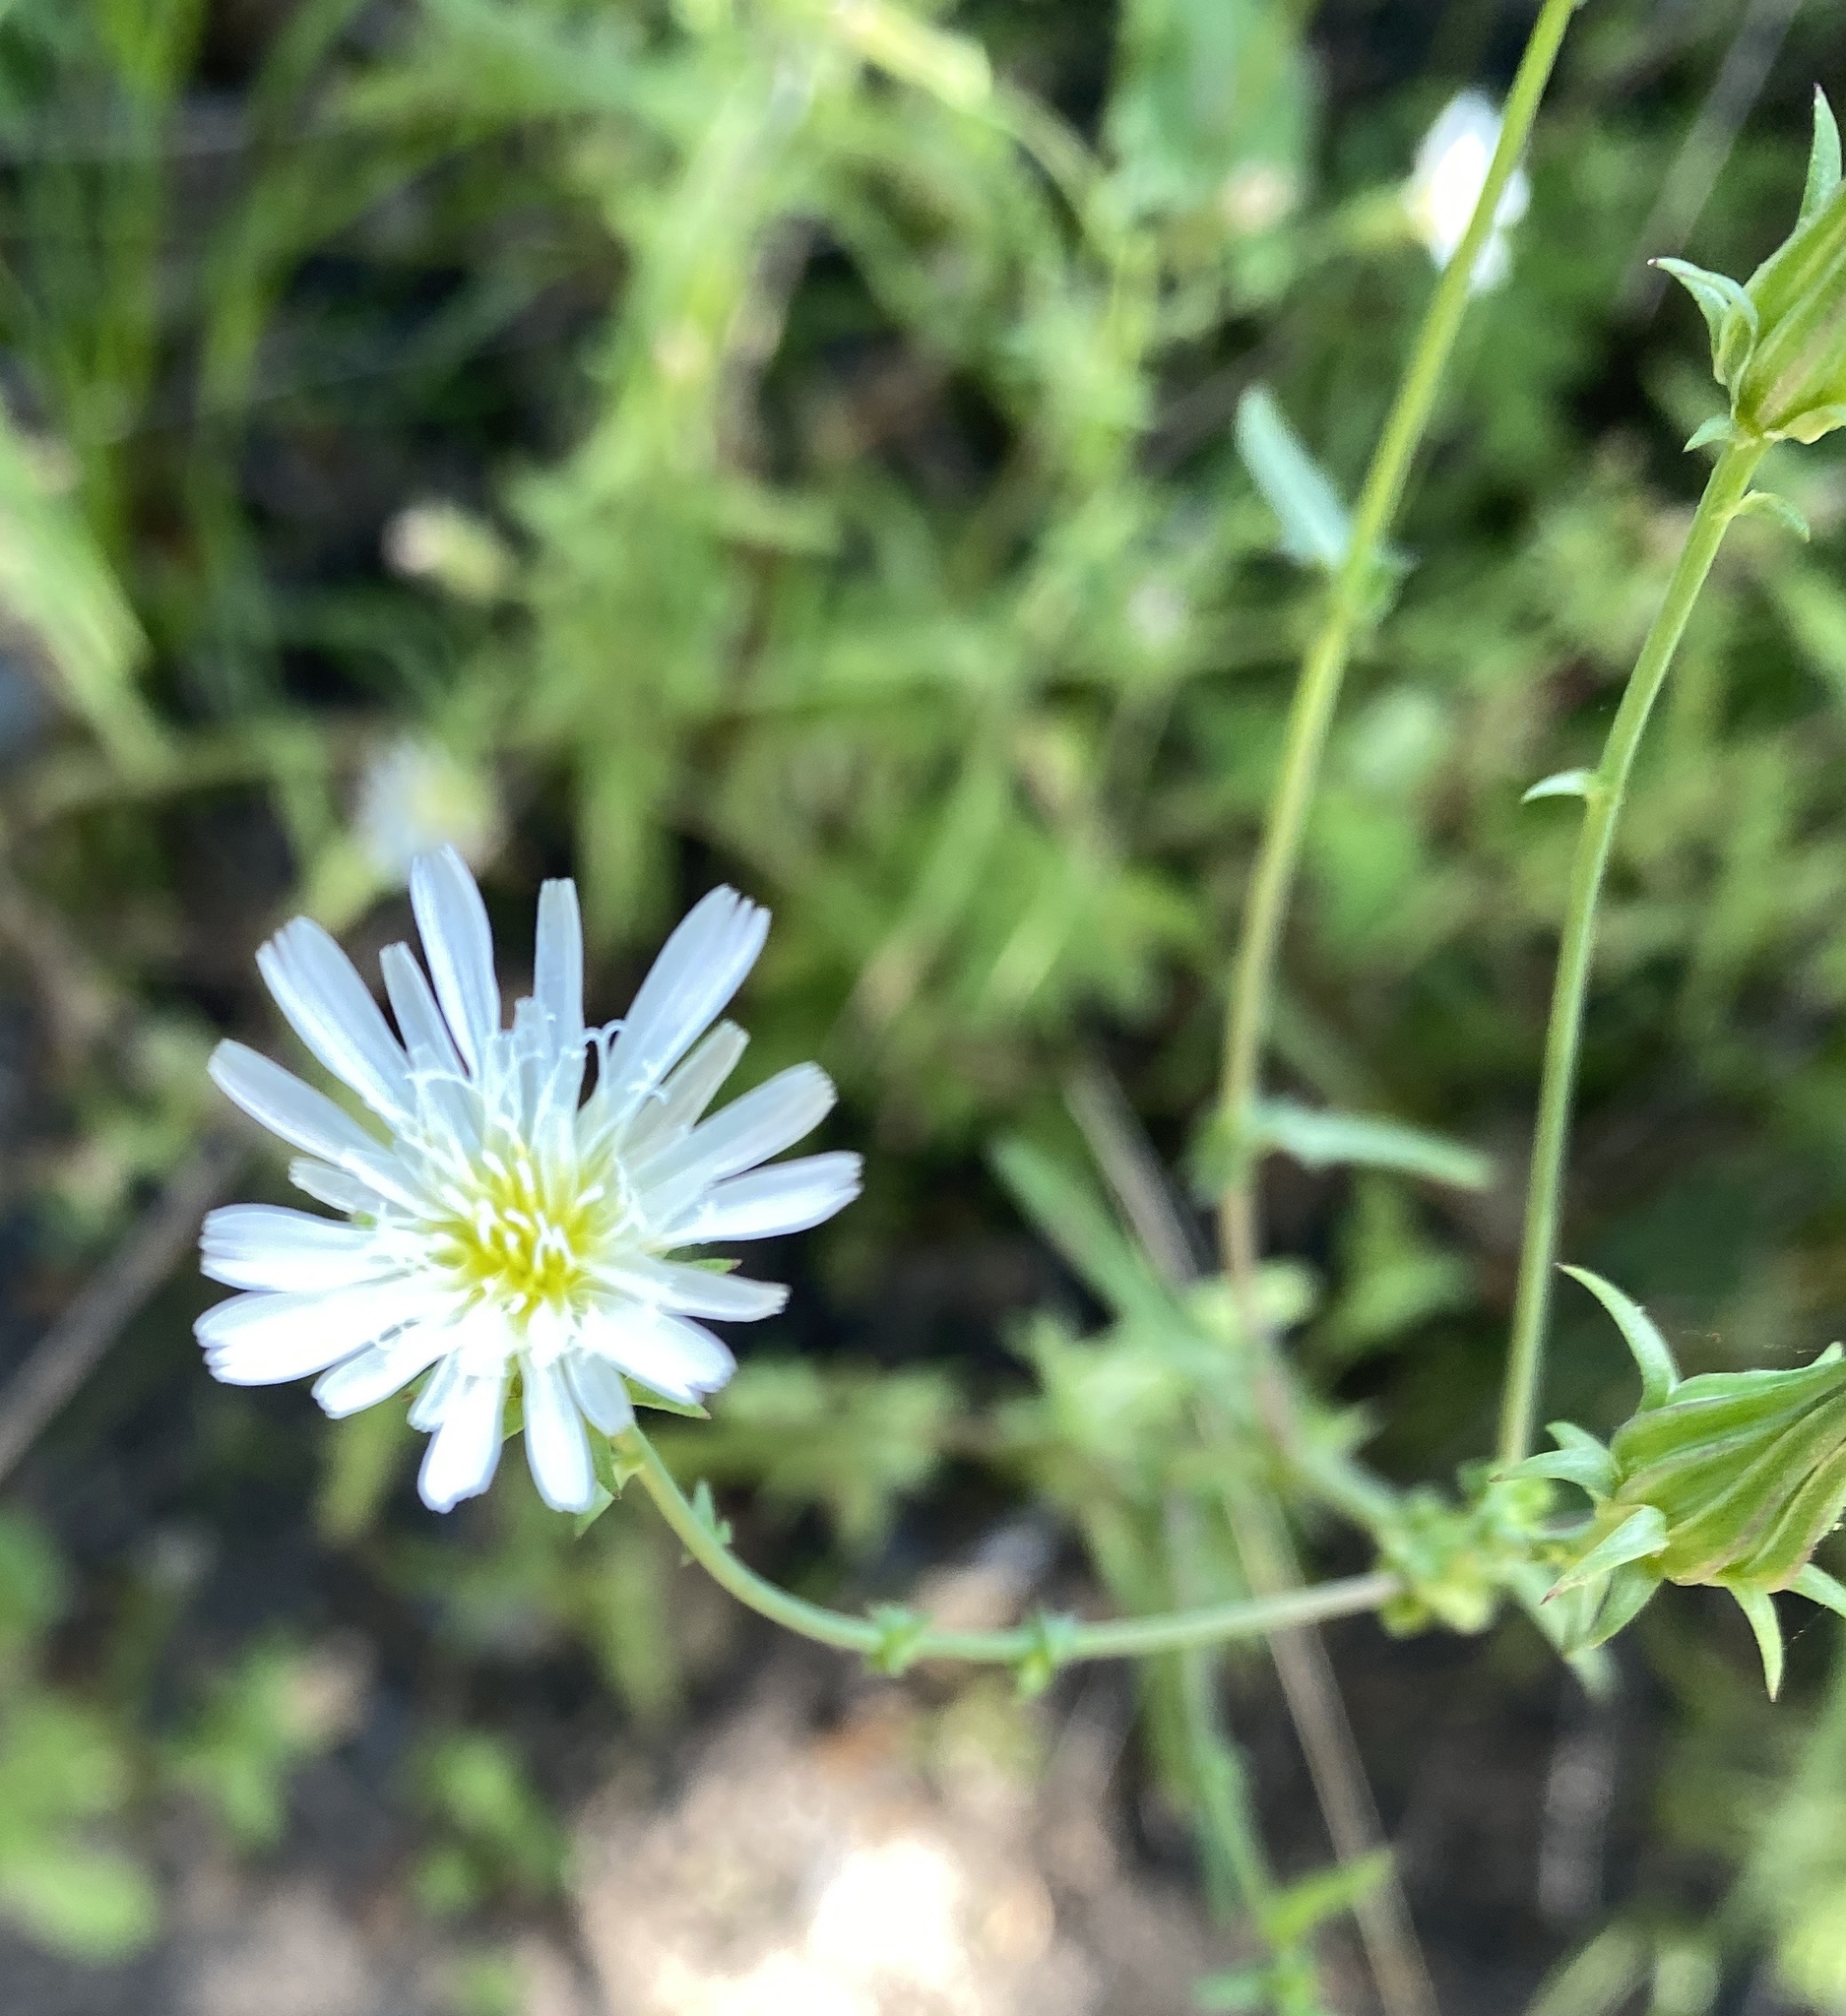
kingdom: Plantae
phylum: Tracheophyta
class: Magnoliopsida
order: Asterales
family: Asteraceae
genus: Rafinesquia
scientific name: Rafinesquia californica
